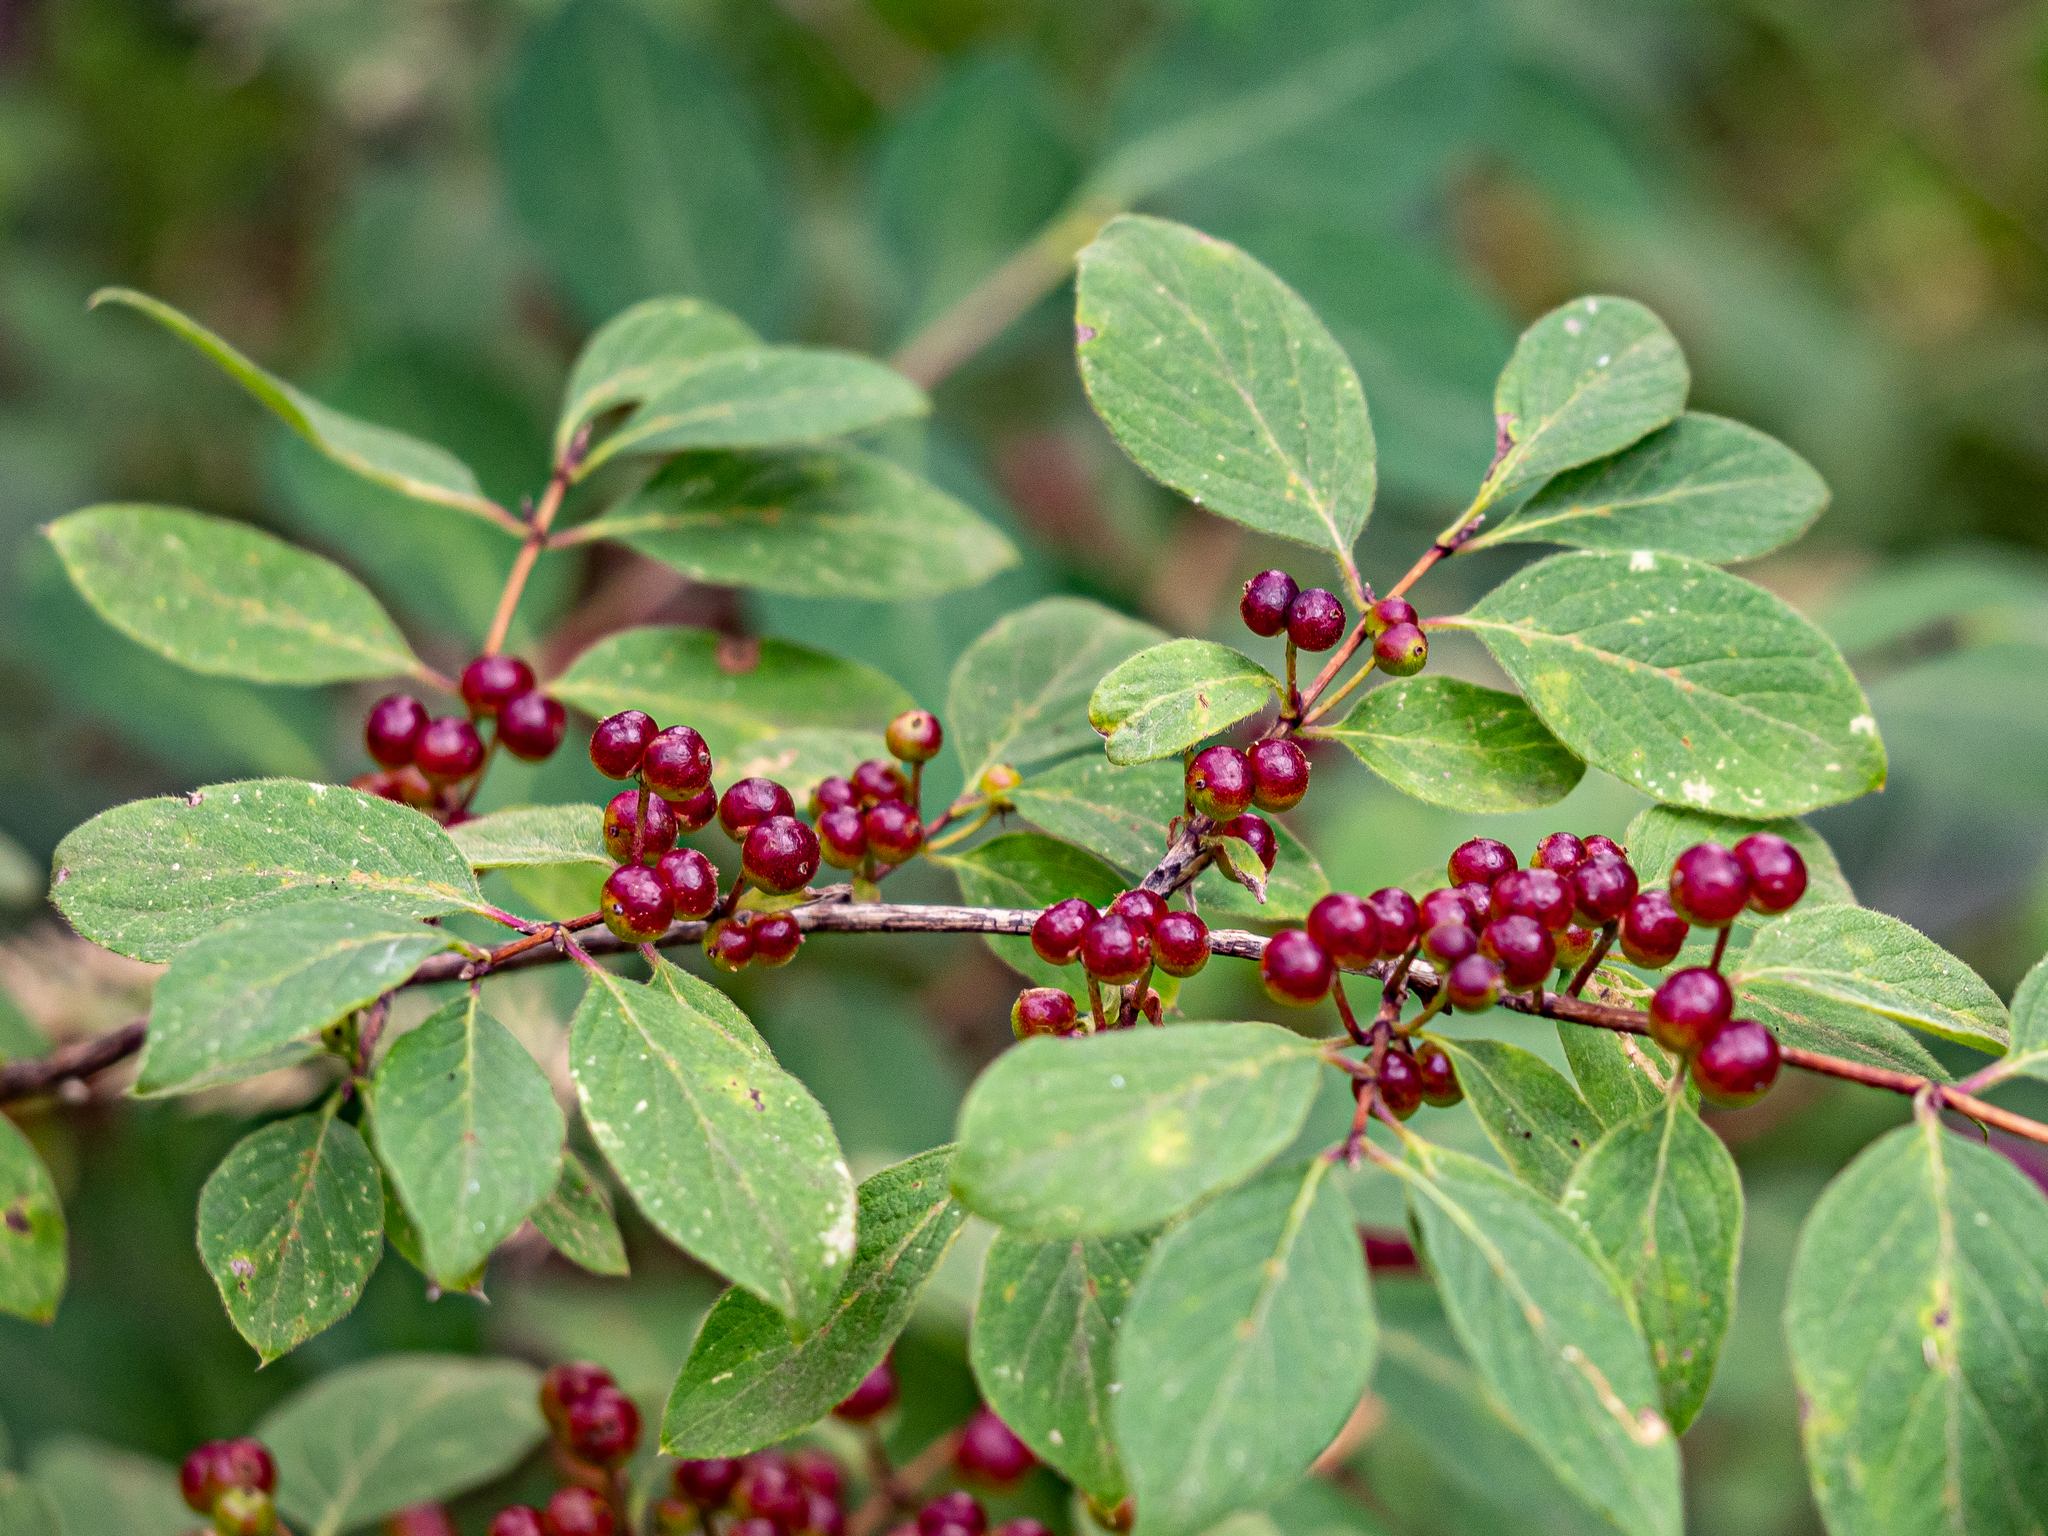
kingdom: Plantae
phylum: Tracheophyta
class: Magnoliopsida
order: Dipsacales
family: Caprifoliaceae
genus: Lonicera
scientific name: Lonicera xylosteum
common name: Fly honeysuckle
